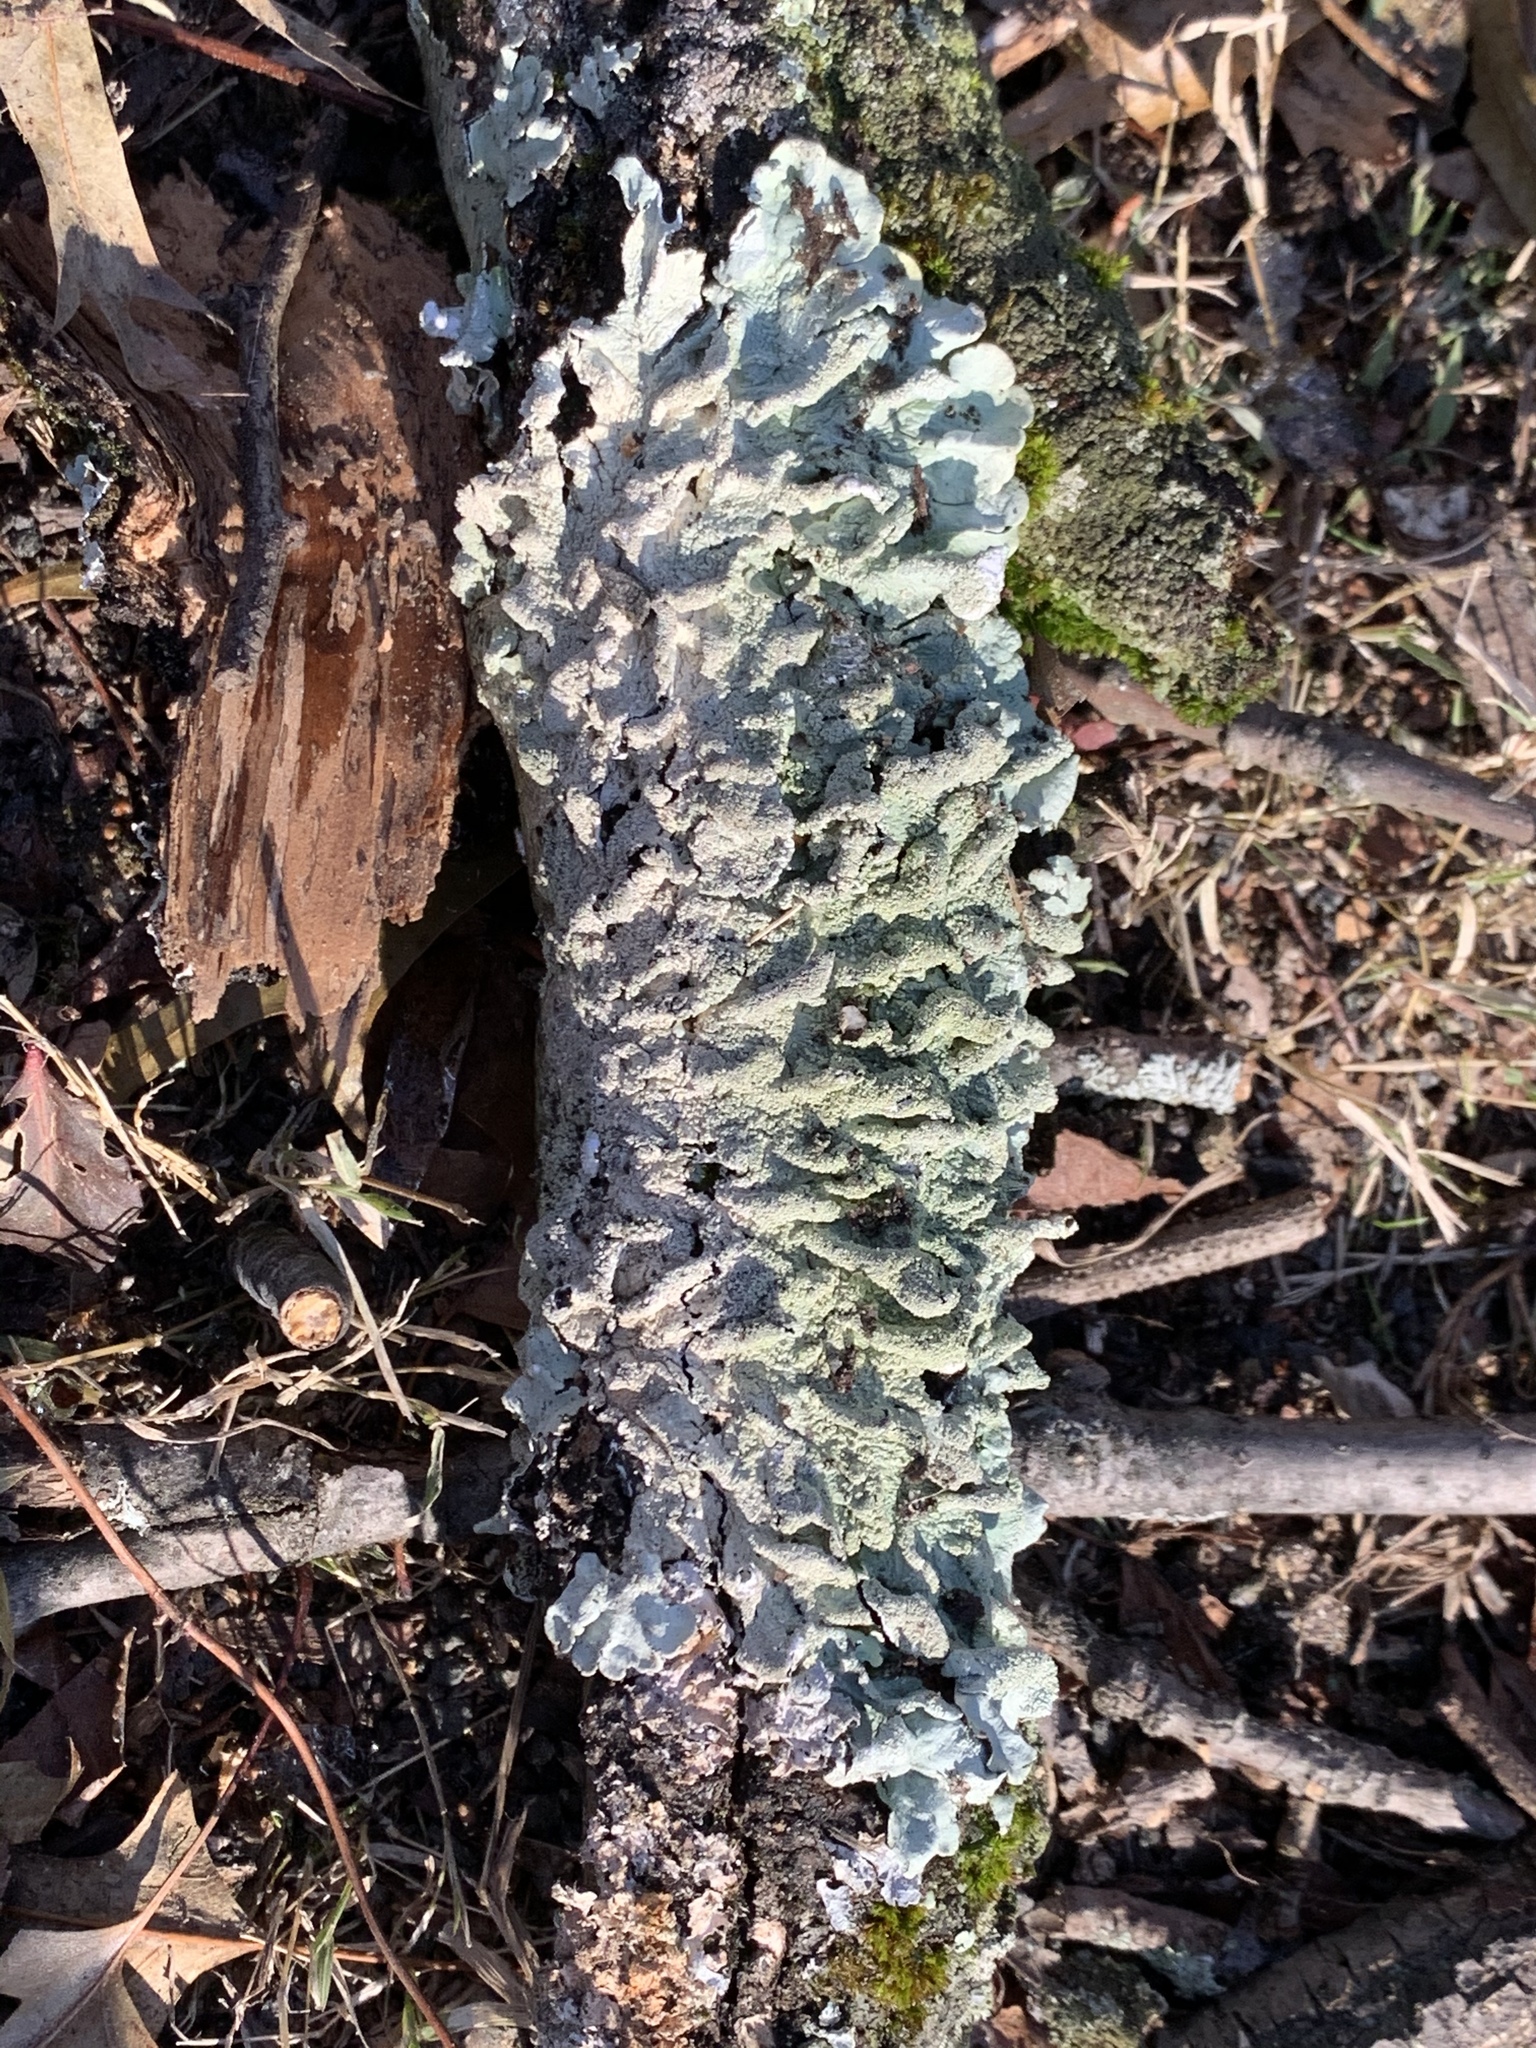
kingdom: Fungi
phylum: Ascomycota
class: Lecanoromycetes
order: Lecanorales
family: Parmeliaceae
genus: Flavoparmelia
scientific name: Flavoparmelia caperata
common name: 40-mile per hour lichen
